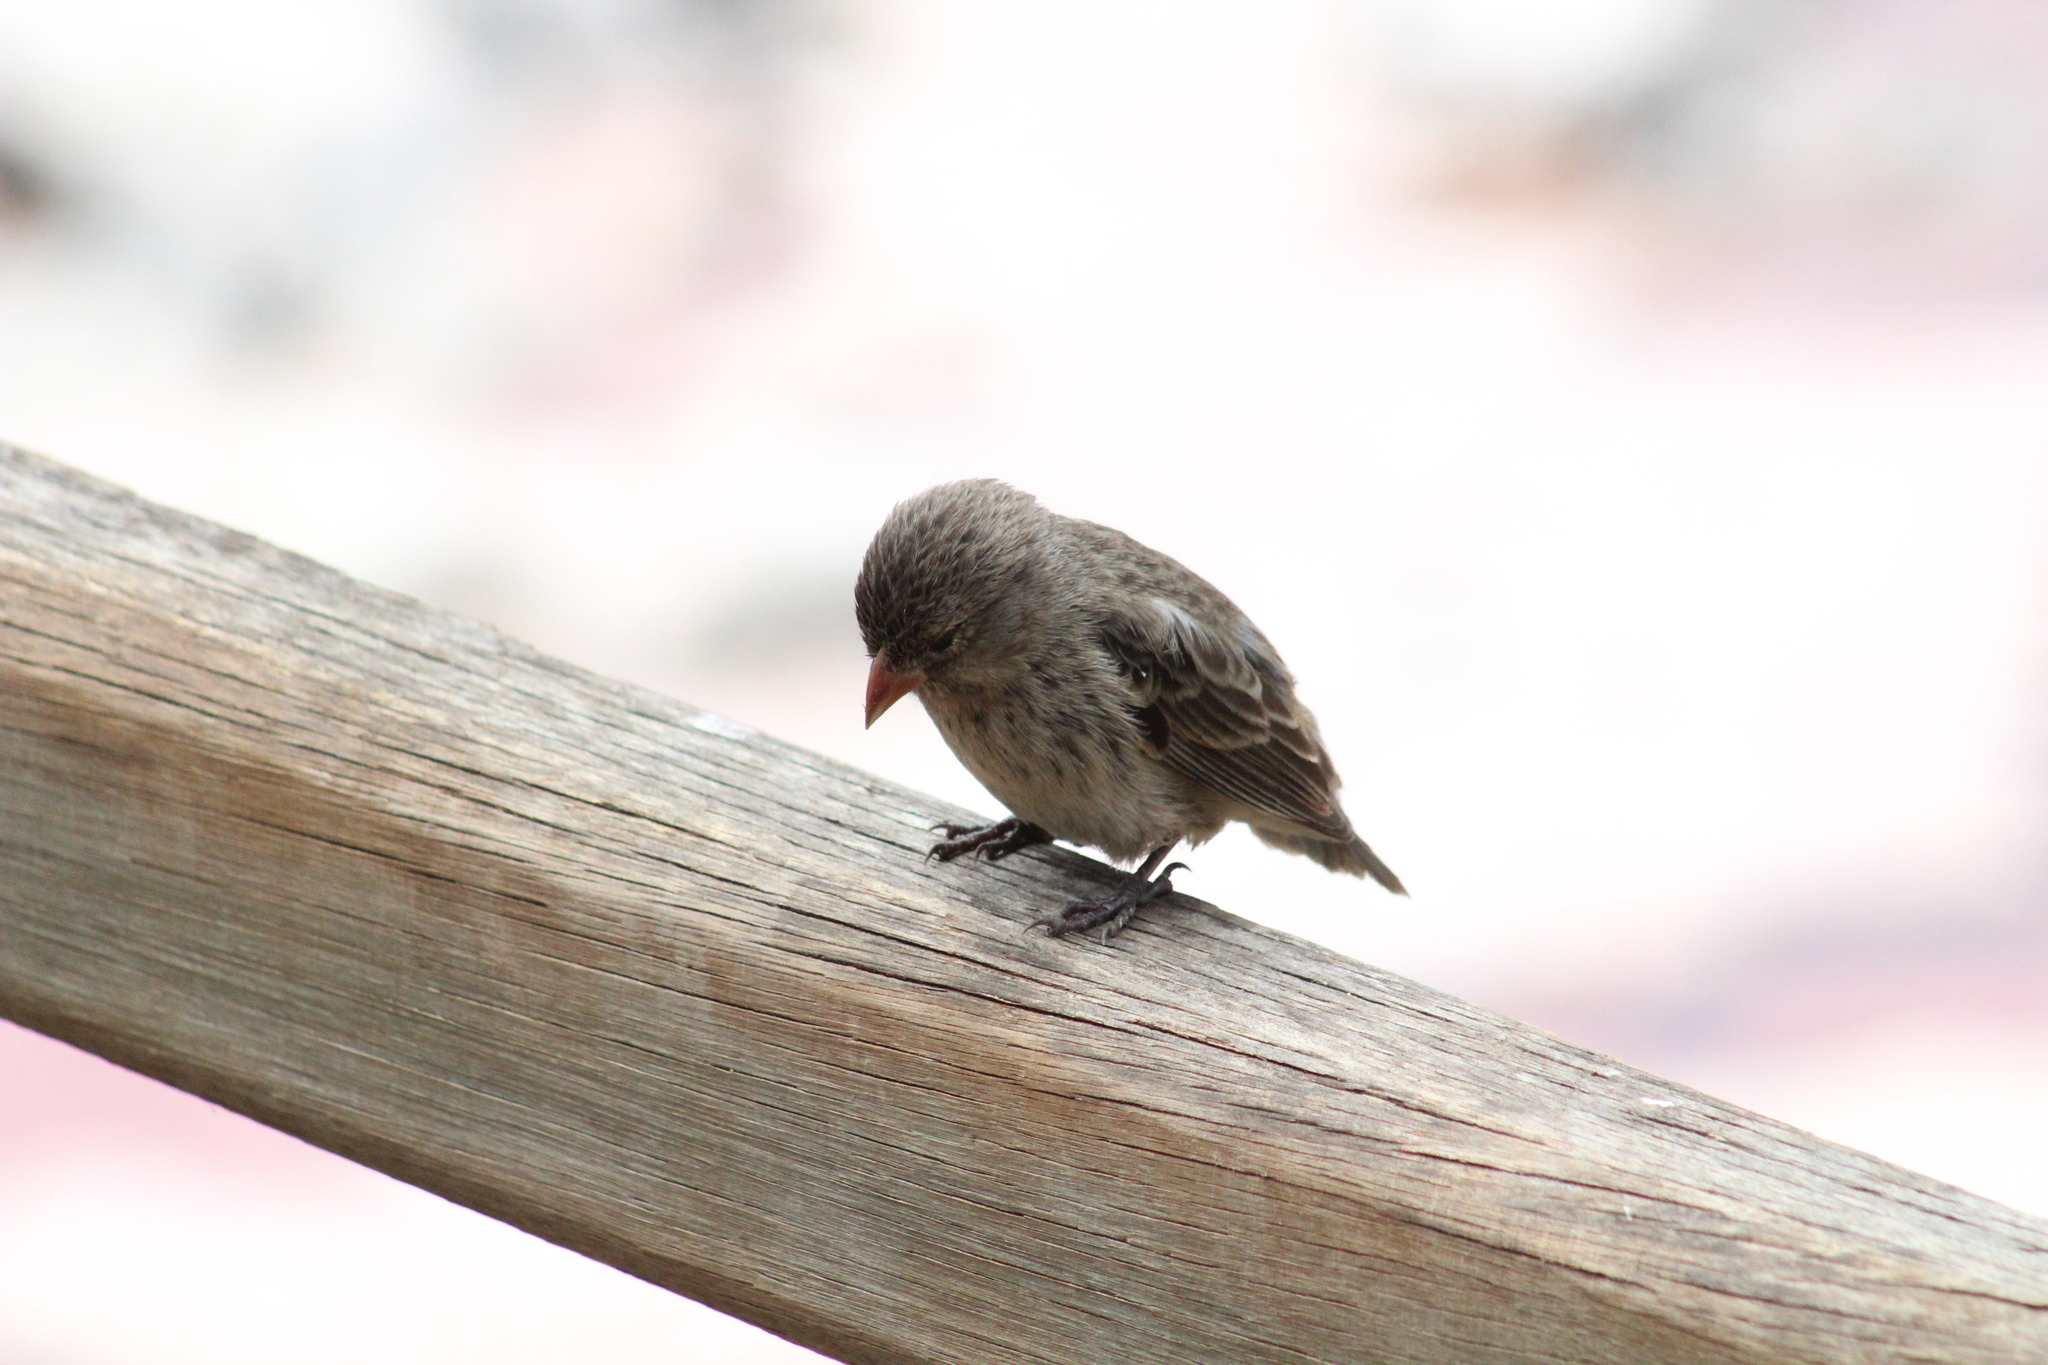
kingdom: Animalia
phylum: Chordata
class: Aves
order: Passeriformes
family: Thraupidae
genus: Geospiza
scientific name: Geospiza fuliginosa
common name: Small ground finch
